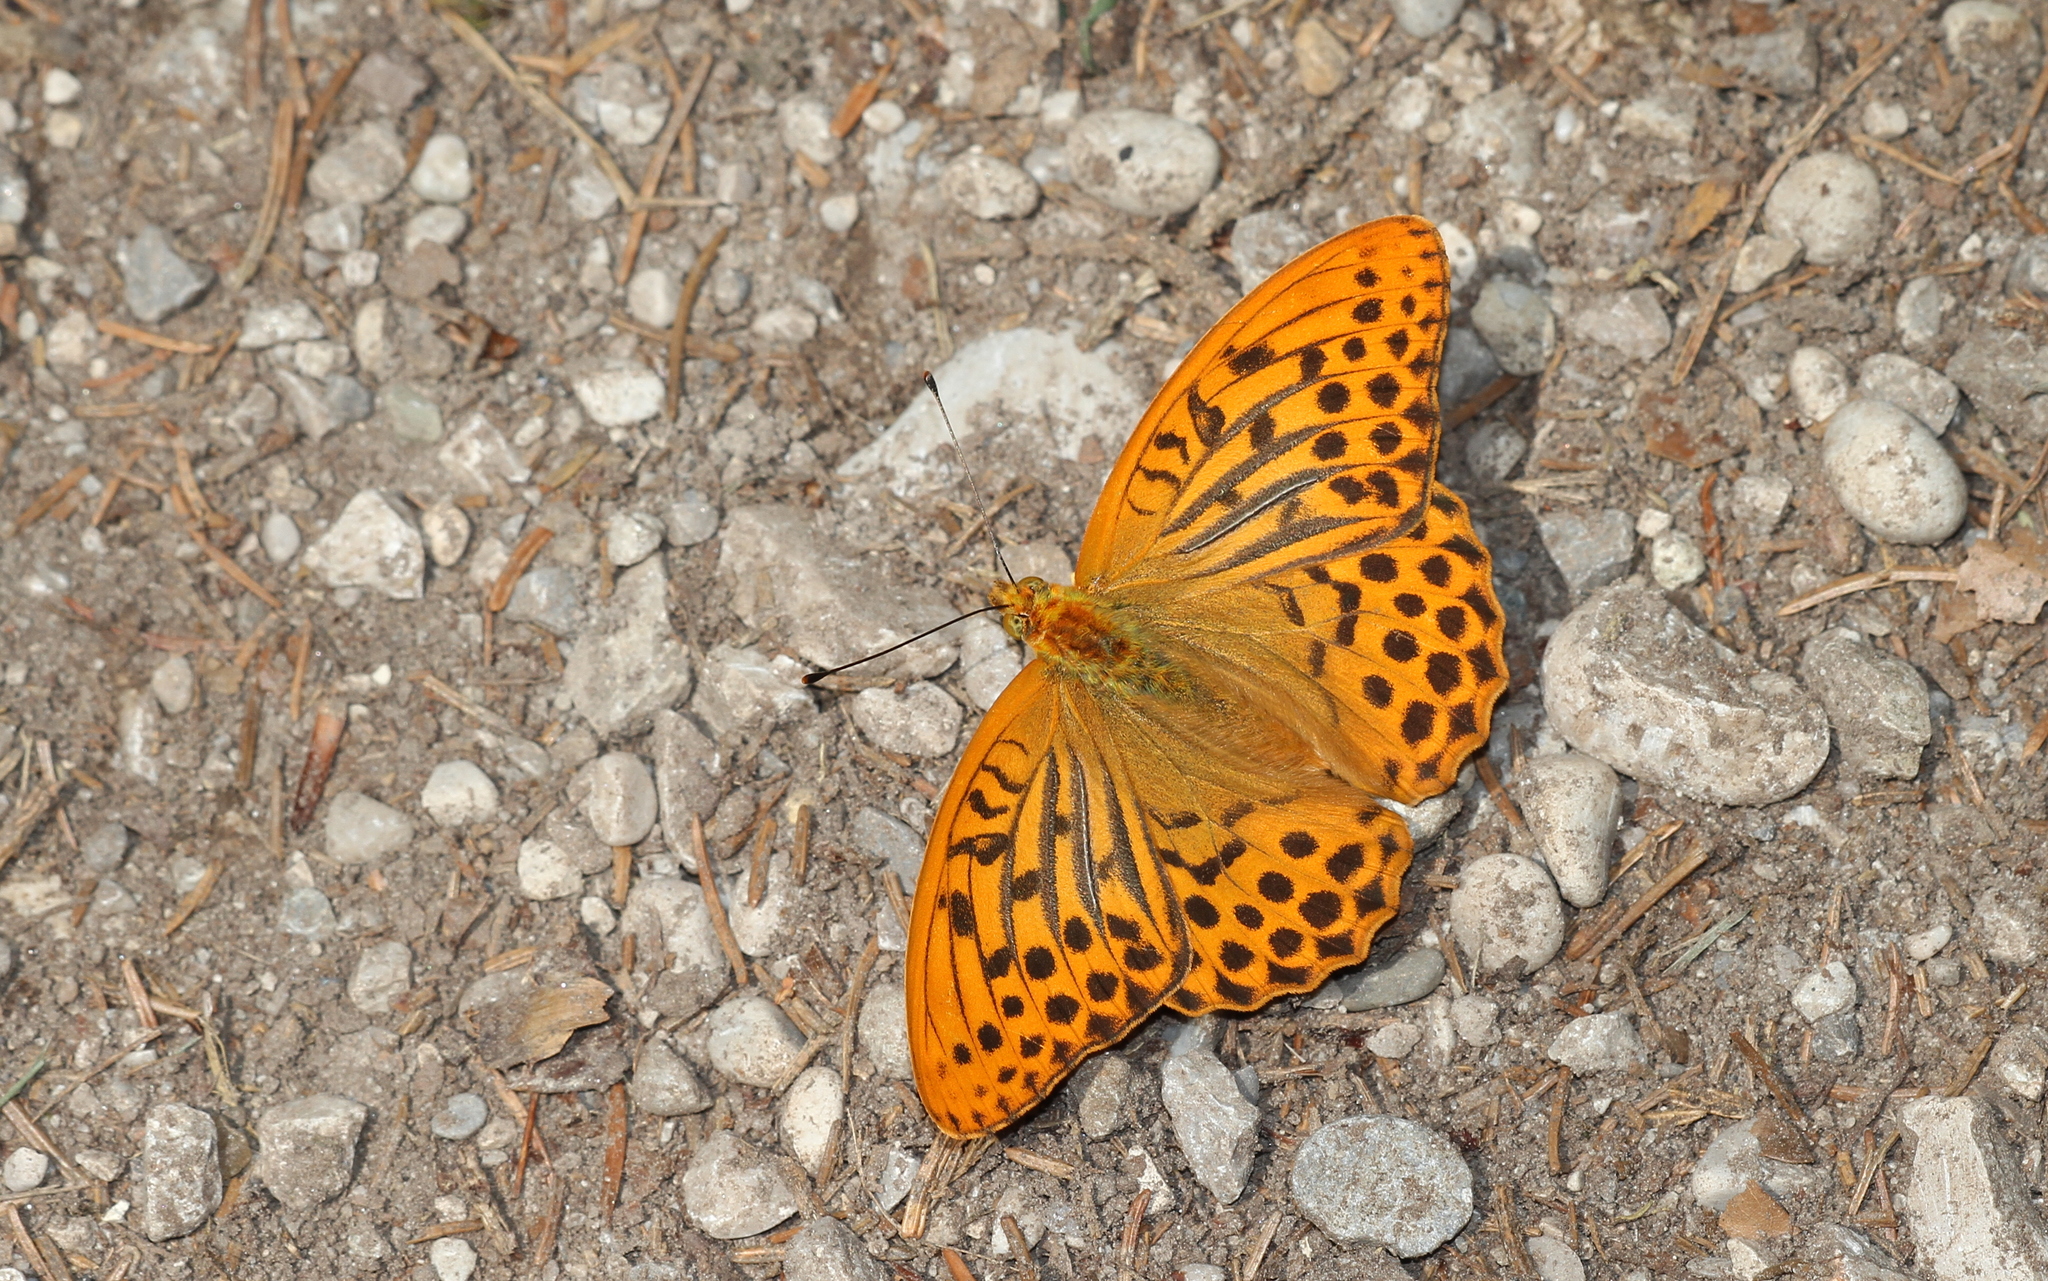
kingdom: Animalia
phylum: Arthropoda
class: Insecta
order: Lepidoptera
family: Nymphalidae
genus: Argynnis
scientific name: Argynnis paphia
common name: Silver-washed fritillary
